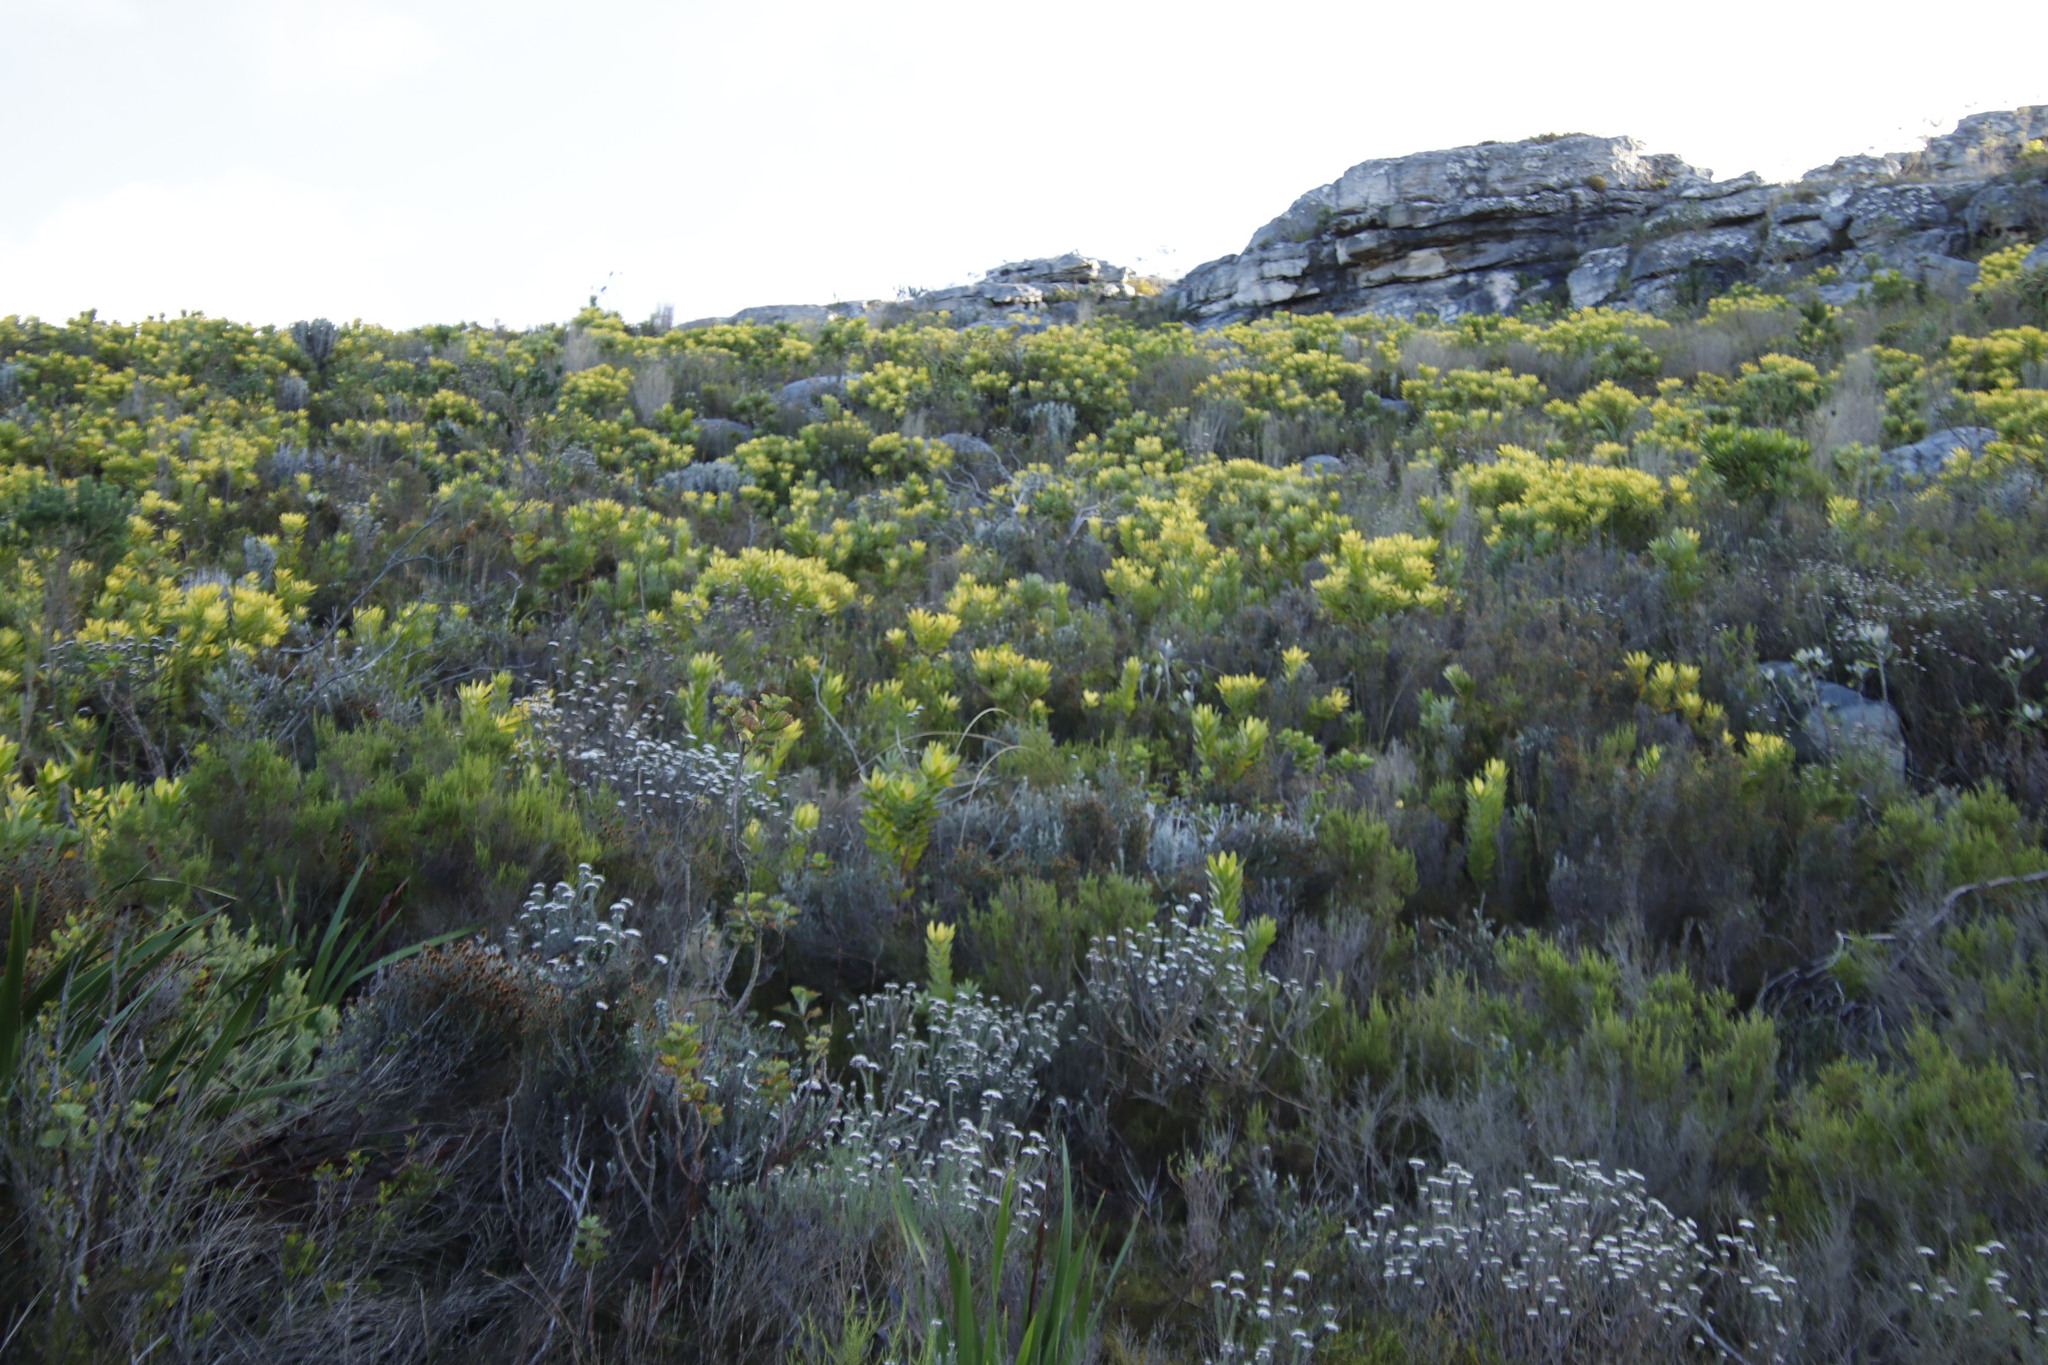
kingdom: Plantae
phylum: Tracheophyta
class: Magnoliopsida
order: Proteales
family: Proteaceae
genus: Leucadendron
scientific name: Leucadendron laureolum
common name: Golden sunshinebush
